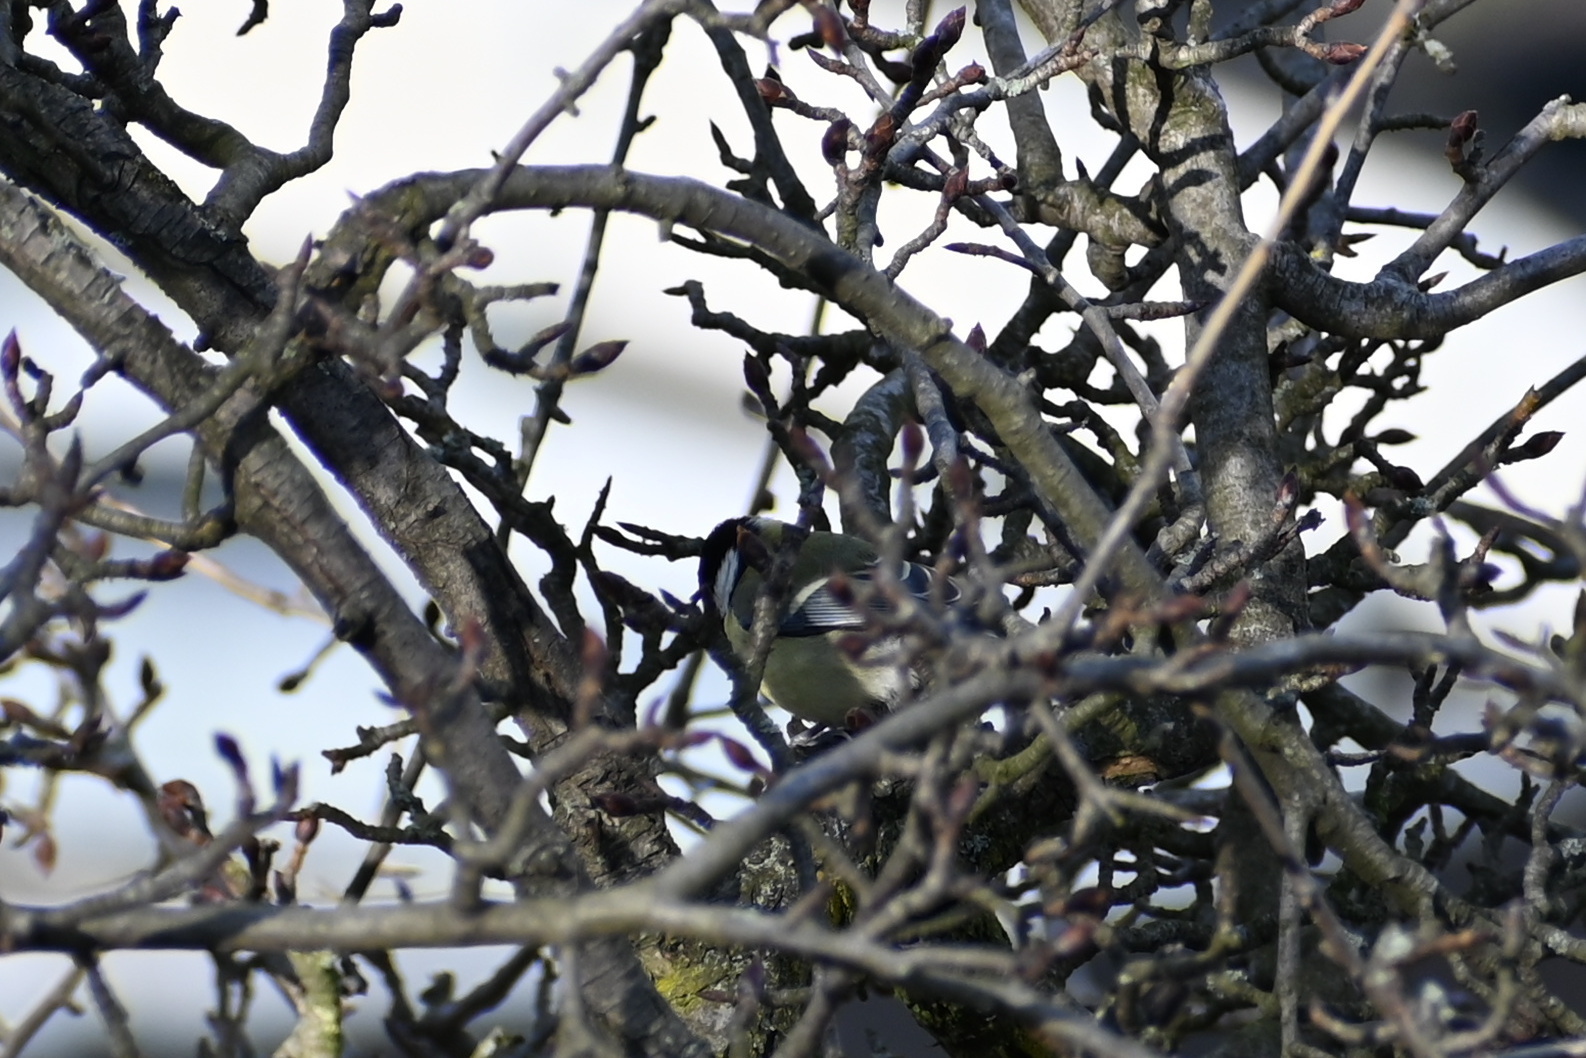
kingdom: Animalia
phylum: Chordata
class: Aves
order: Passeriformes
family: Paridae
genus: Parus
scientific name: Parus major
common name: Great tit
